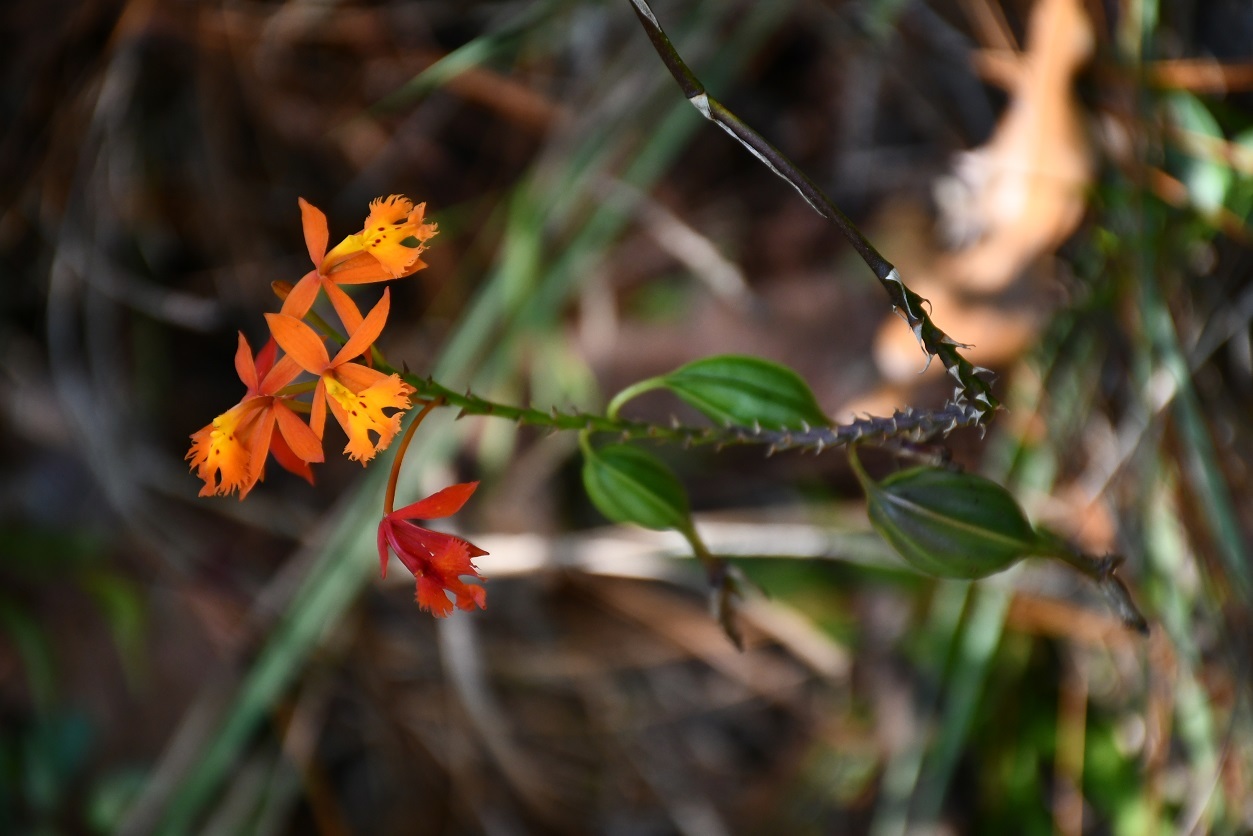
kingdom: Plantae
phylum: Tracheophyta
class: Liliopsida
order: Asparagales
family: Orchidaceae
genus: Epidendrum
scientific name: Epidendrum radicans
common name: Fire star orchid
